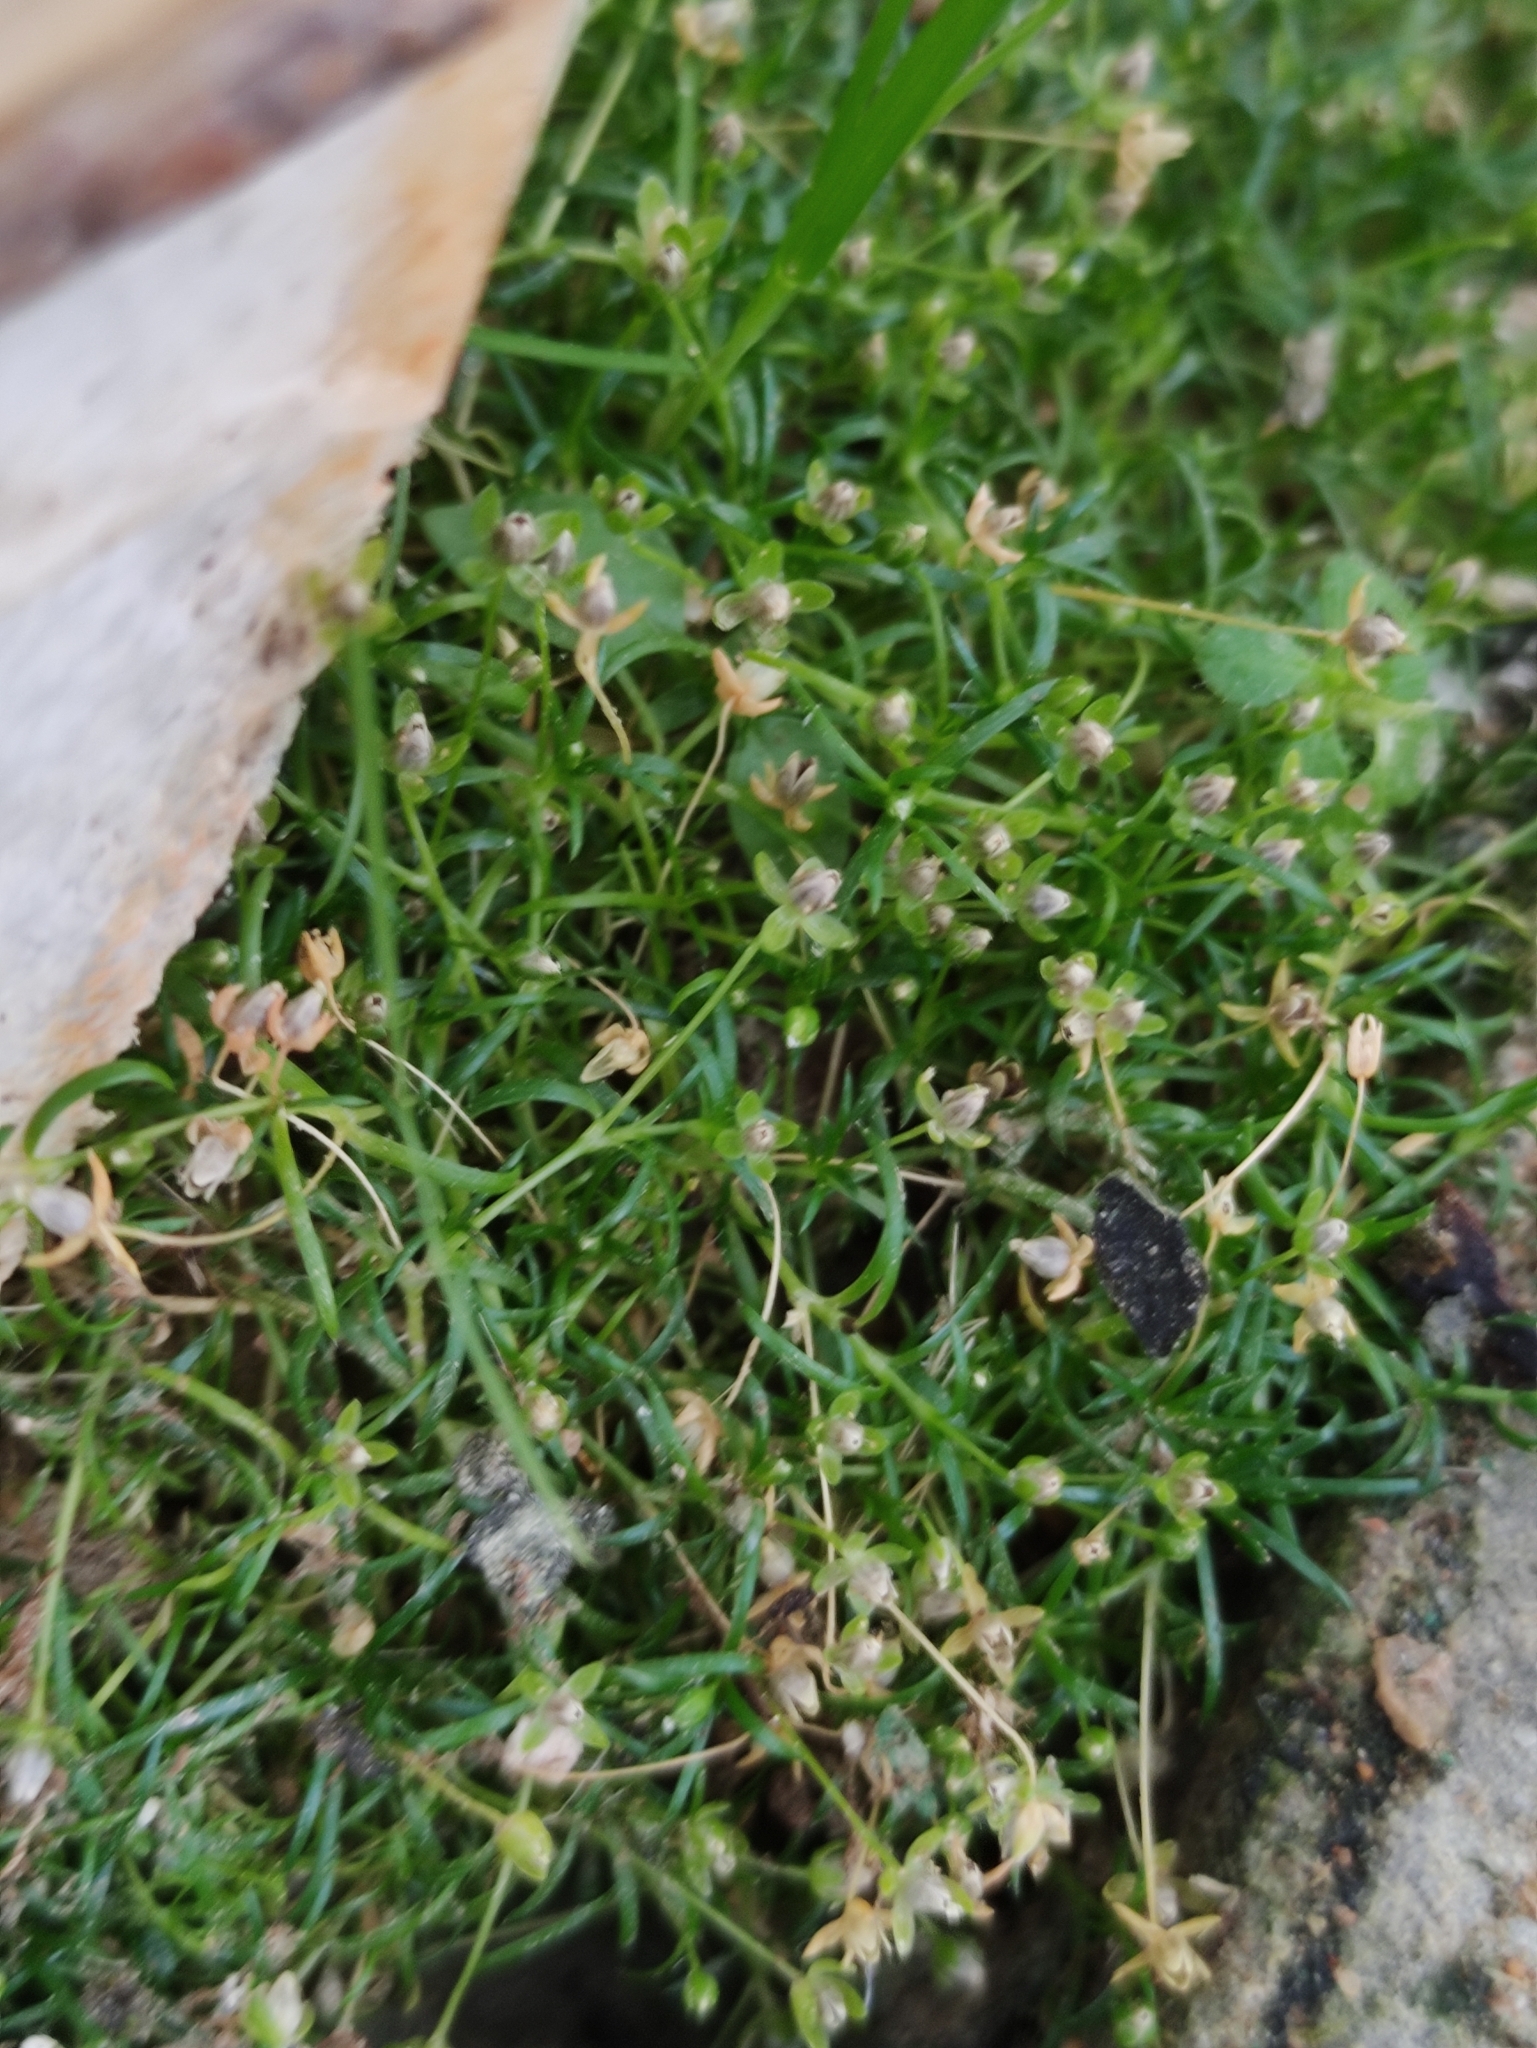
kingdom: Plantae
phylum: Tracheophyta
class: Magnoliopsida
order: Caryophyllales
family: Caryophyllaceae
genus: Sagina
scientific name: Sagina procumbens
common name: Procumbent pearlwort
